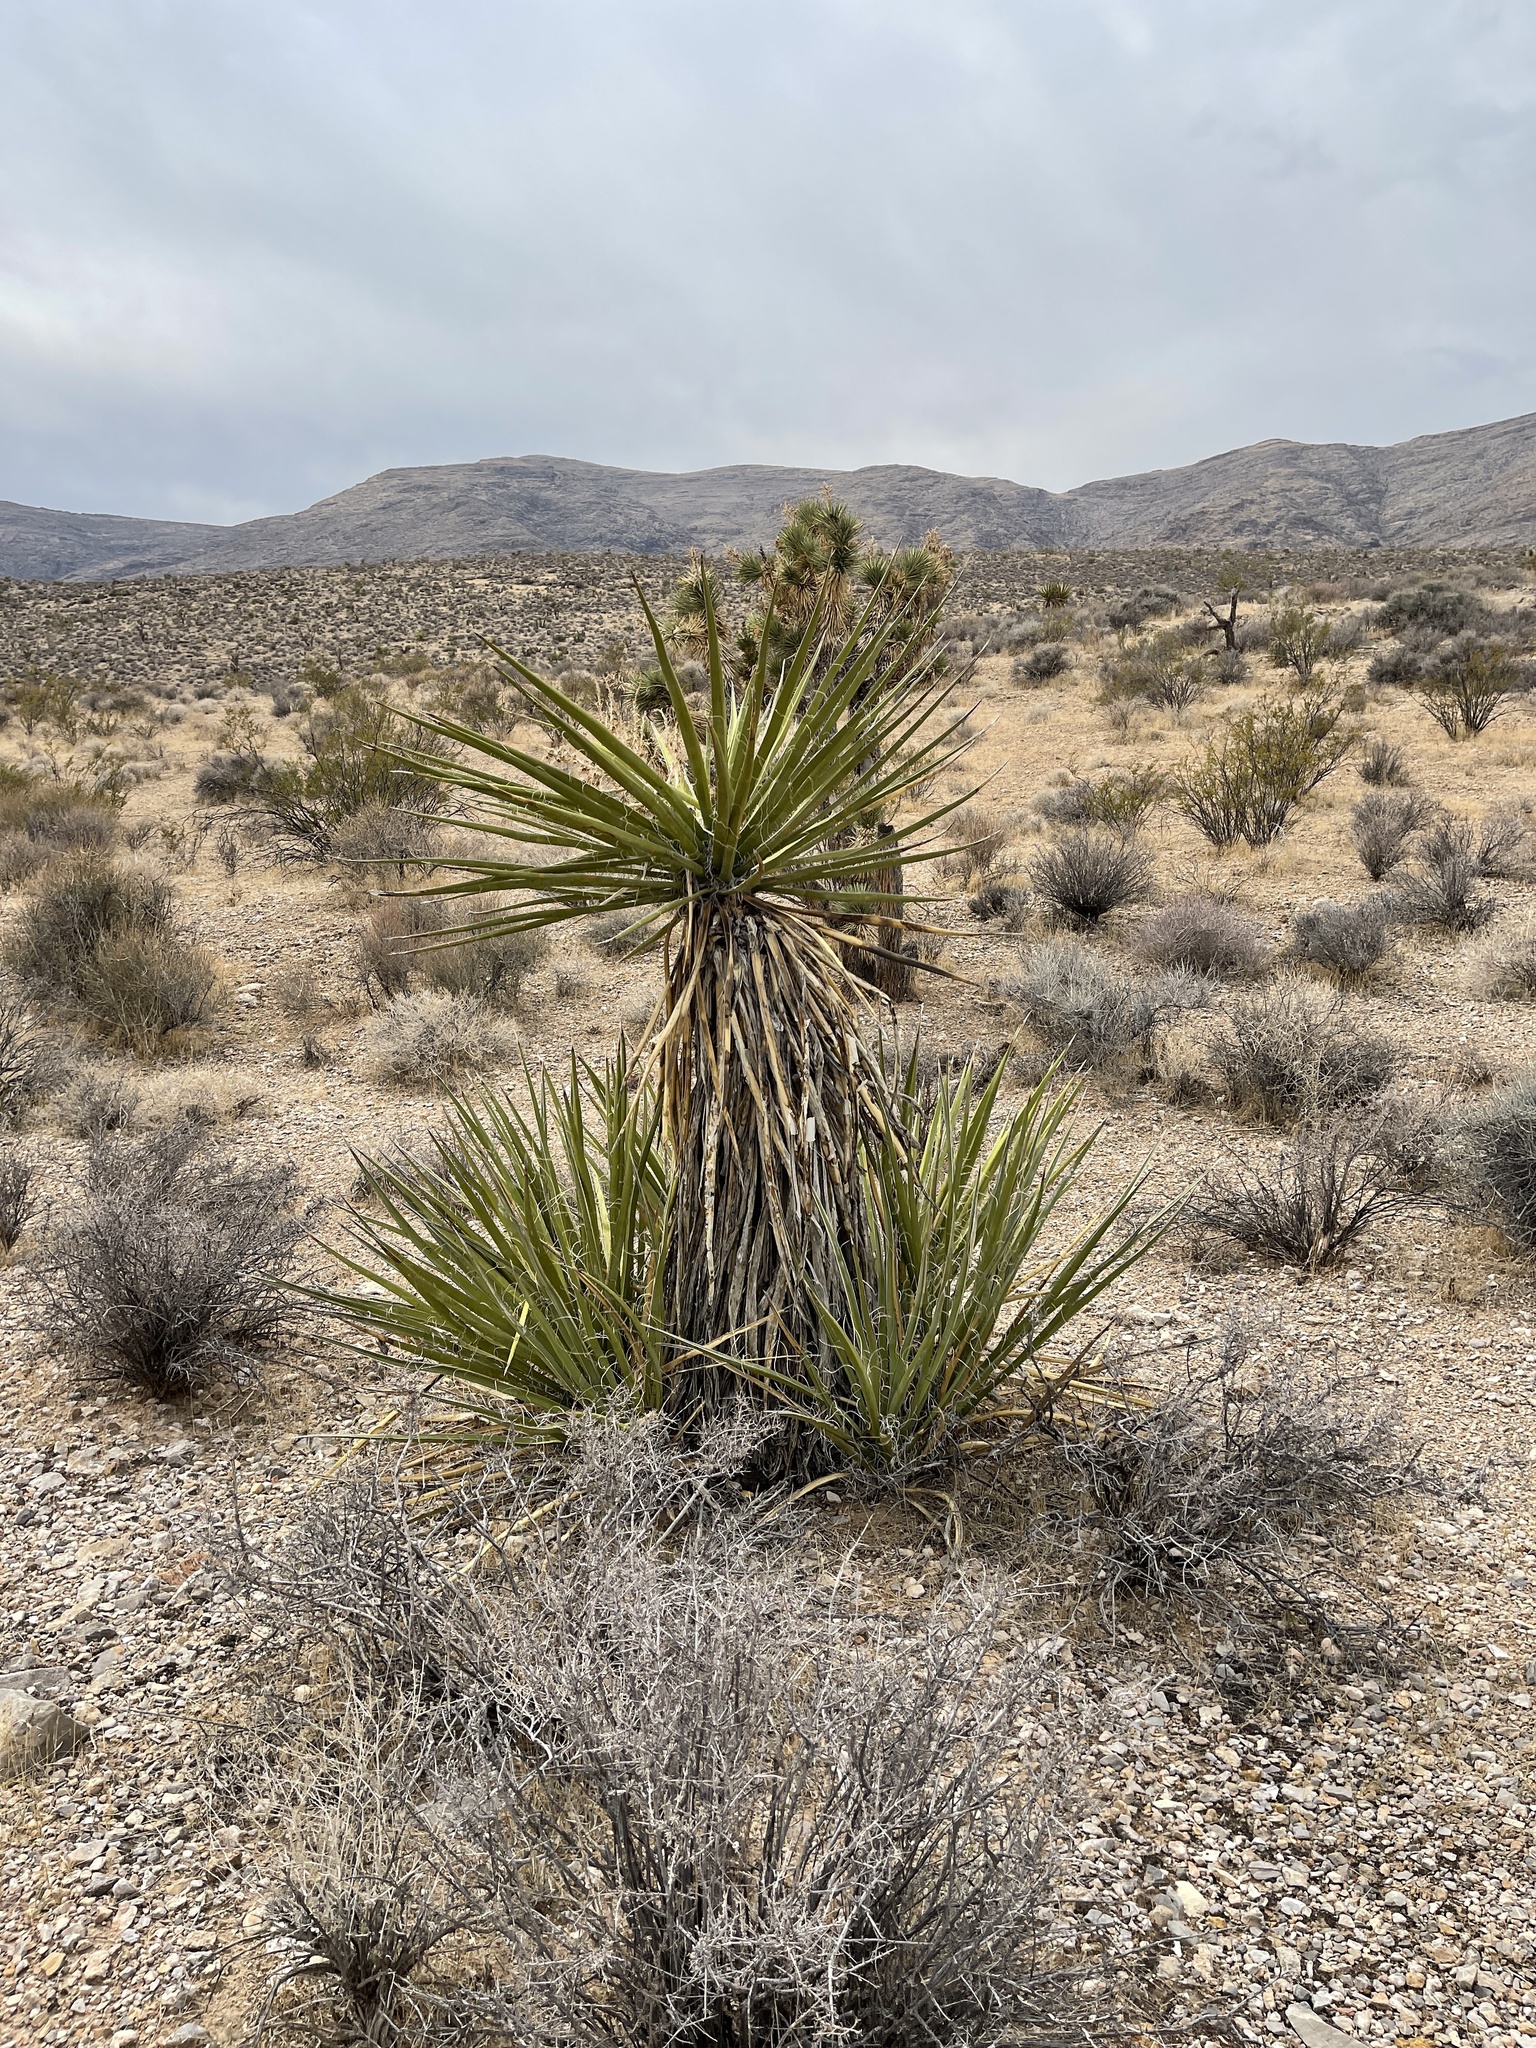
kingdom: Plantae
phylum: Tracheophyta
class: Liliopsida
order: Asparagales
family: Asparagaceae
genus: Yucca
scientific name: Yucca schidigera
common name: Mojave yucca
